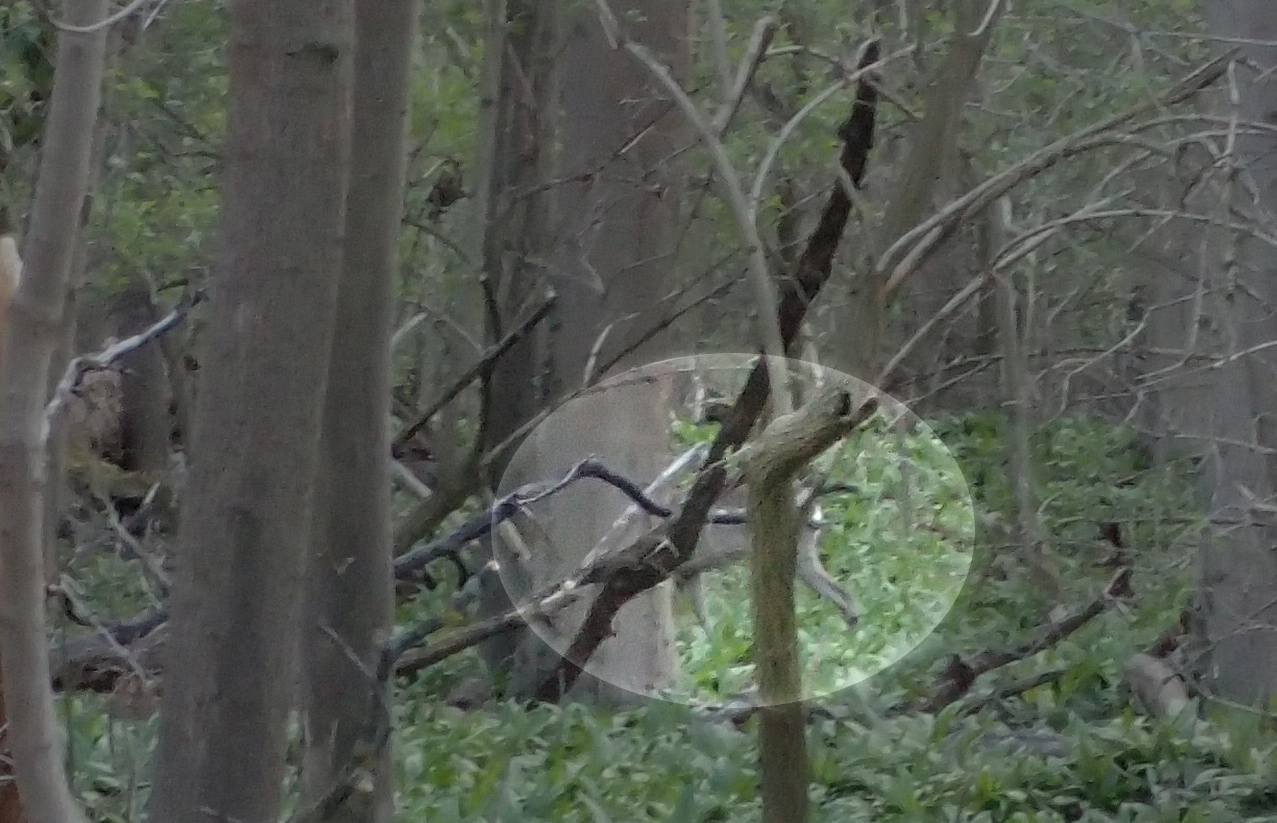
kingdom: Animalia
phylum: Chordata
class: Mammalia
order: Artiodactyla
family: Cervidae
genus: Capreolus
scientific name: Capreolus capreolus
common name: Western roe deer
